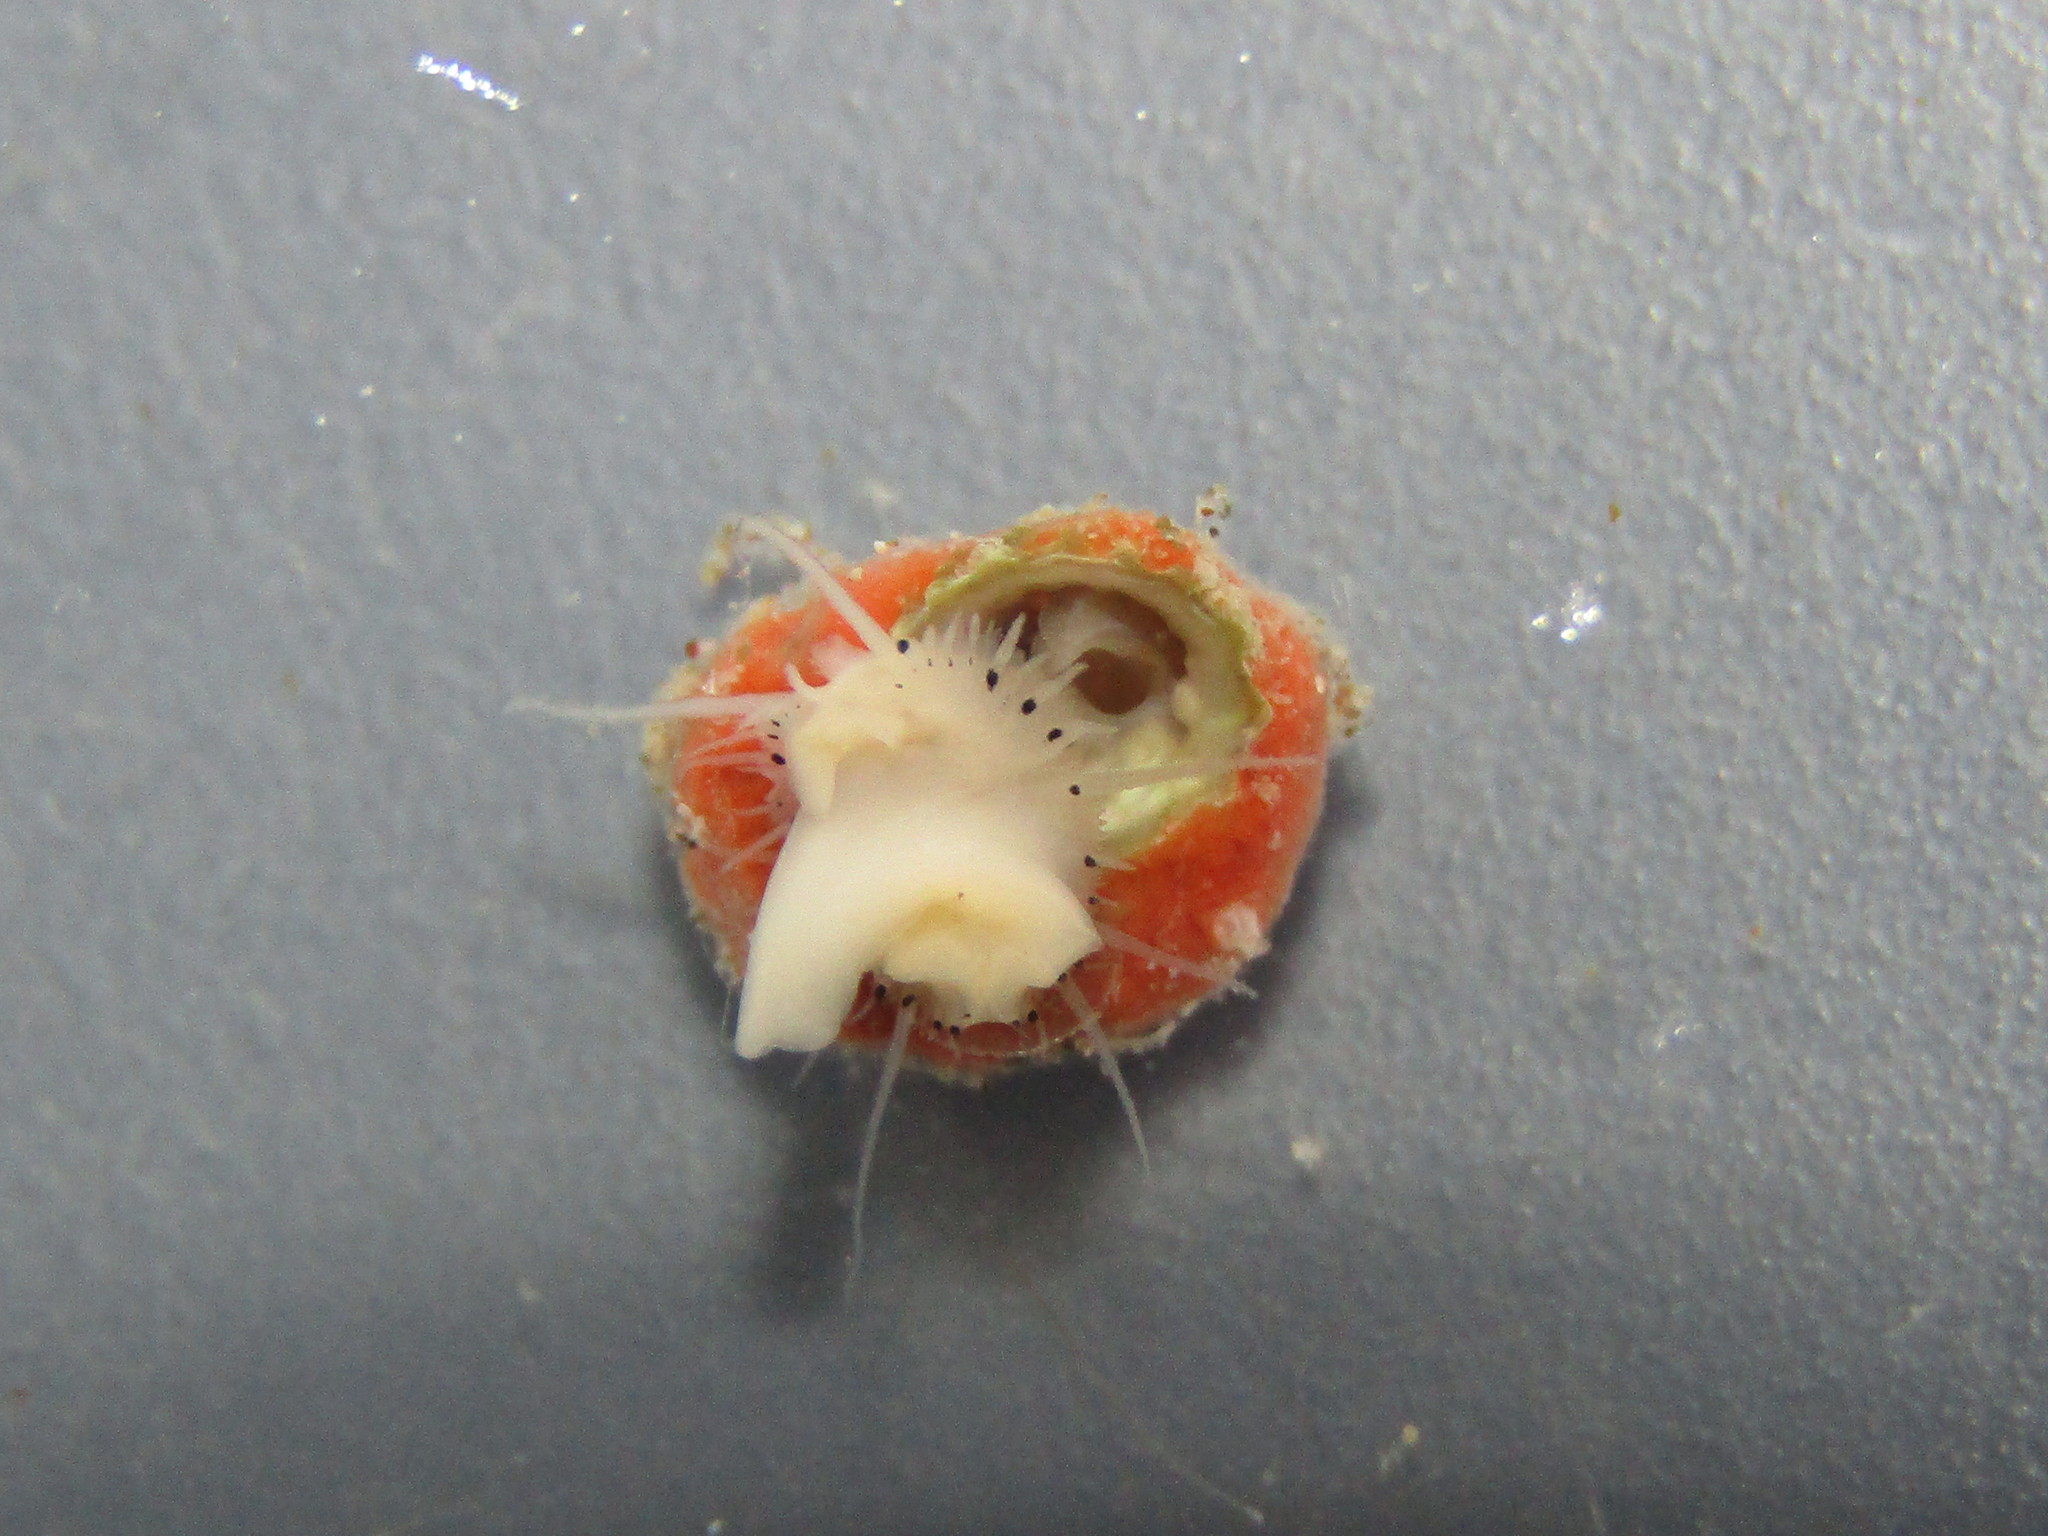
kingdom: Animalia
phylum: Mollusca
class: Gastropoda
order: Seguenziida
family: Chilodontaidae
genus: Herpetopoma
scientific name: Herpetopoma bellum
